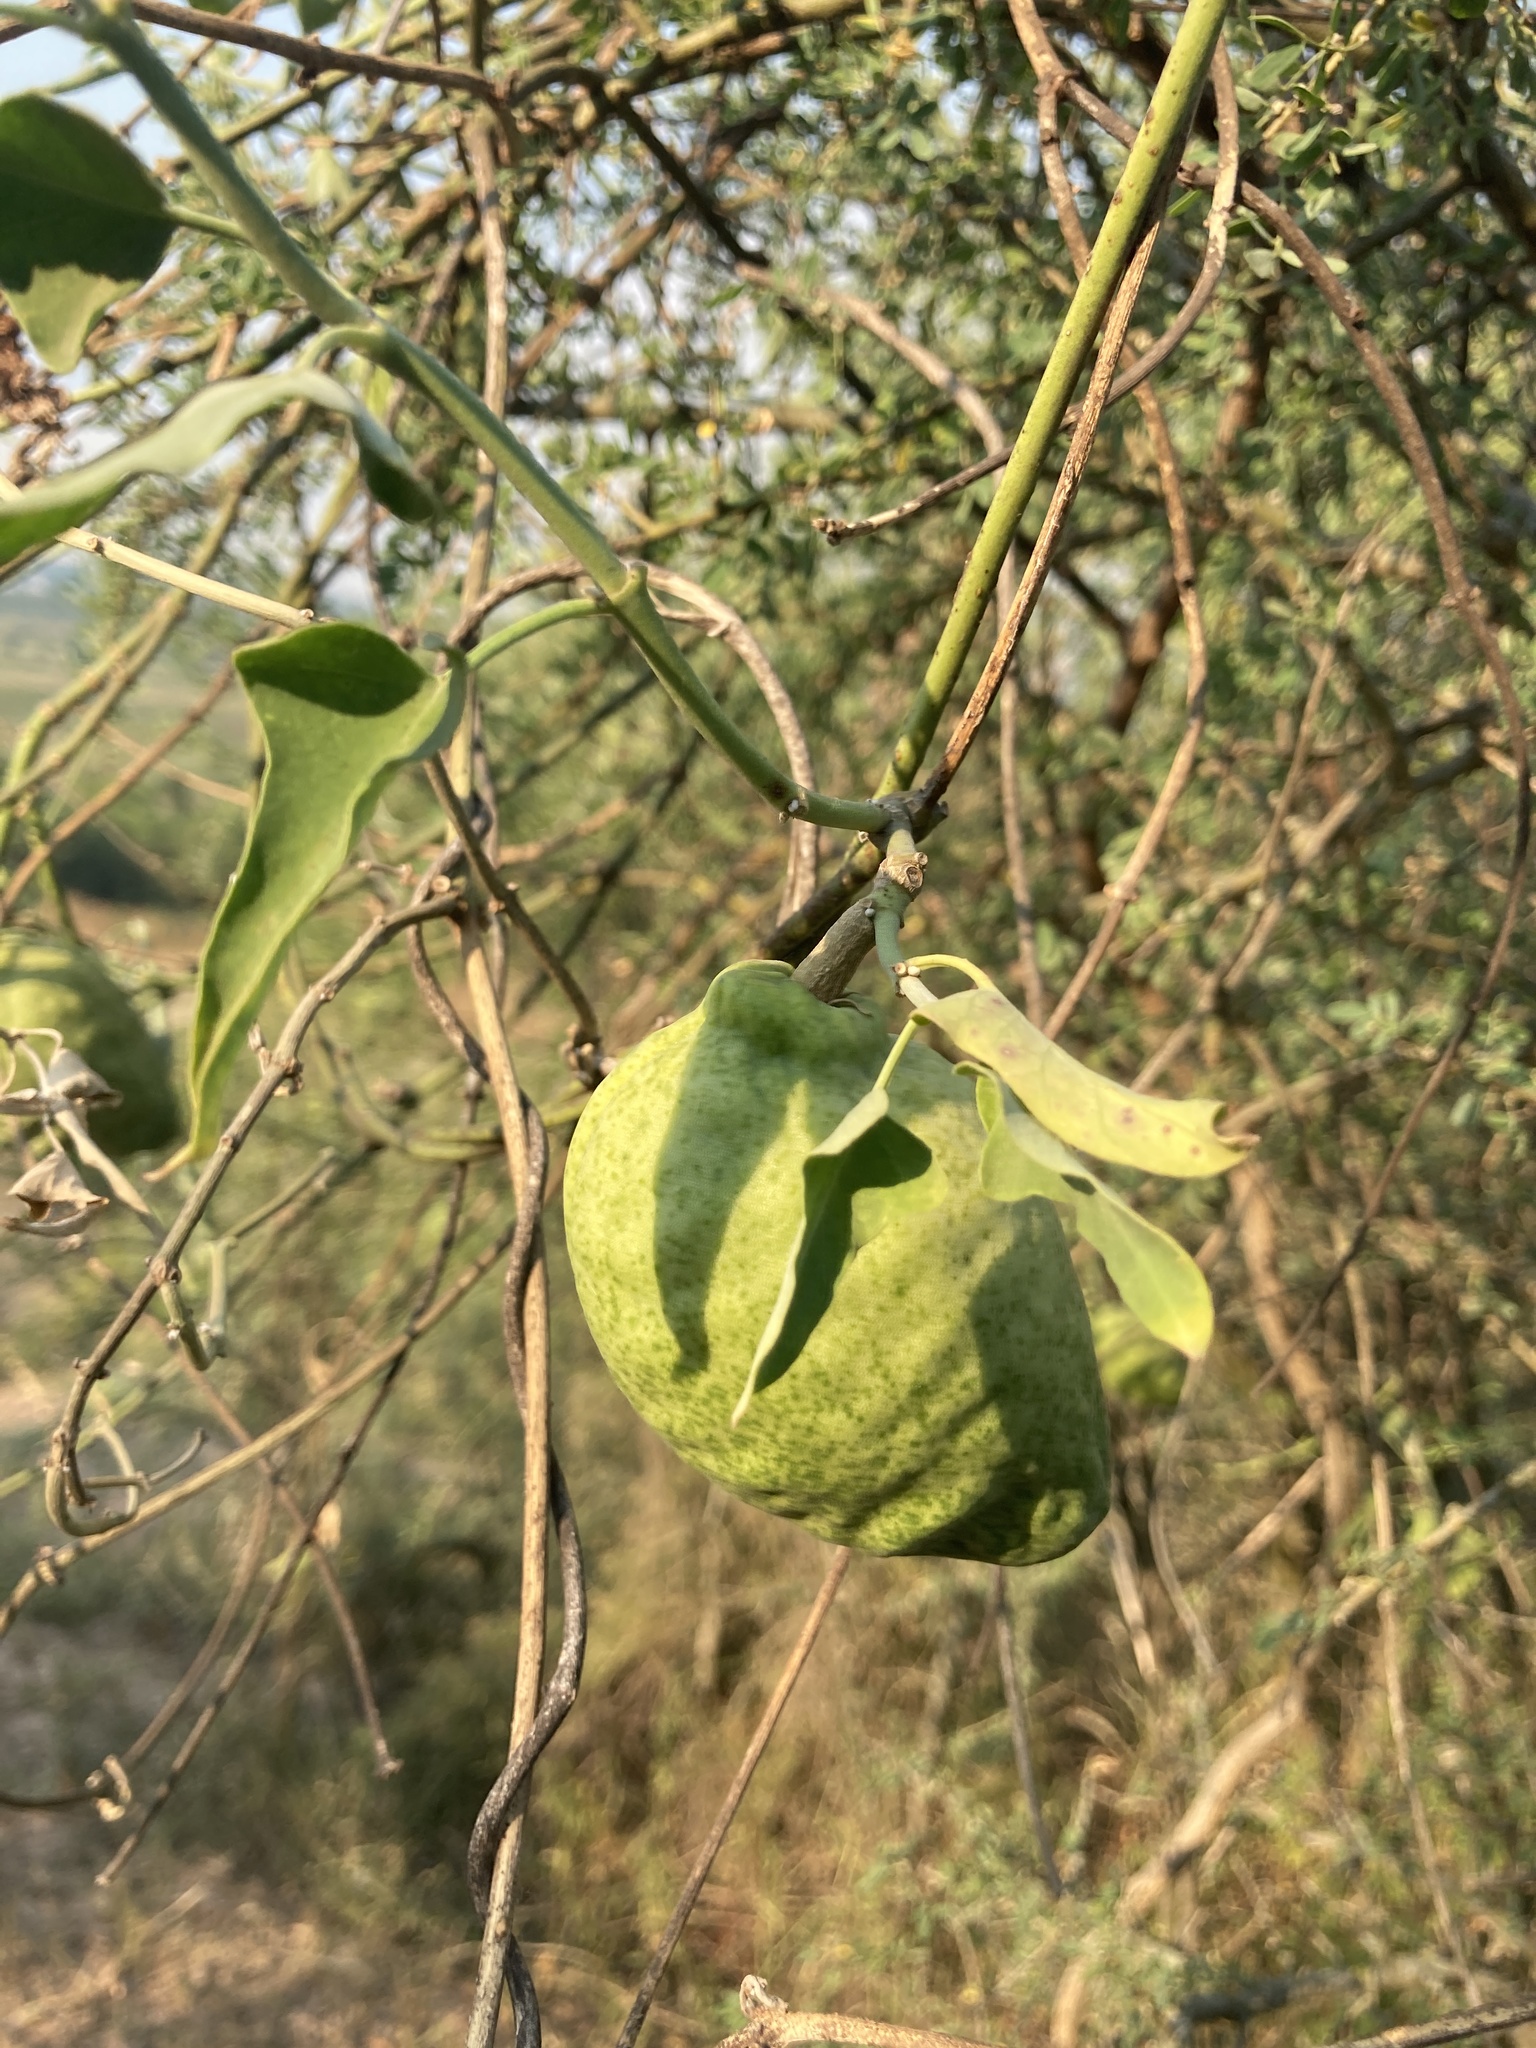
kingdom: Plantae
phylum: Tracheophyta
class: Magnoliopsida
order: Gentianales
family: Apocynaceae
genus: Araujia
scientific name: Araujia odorata
